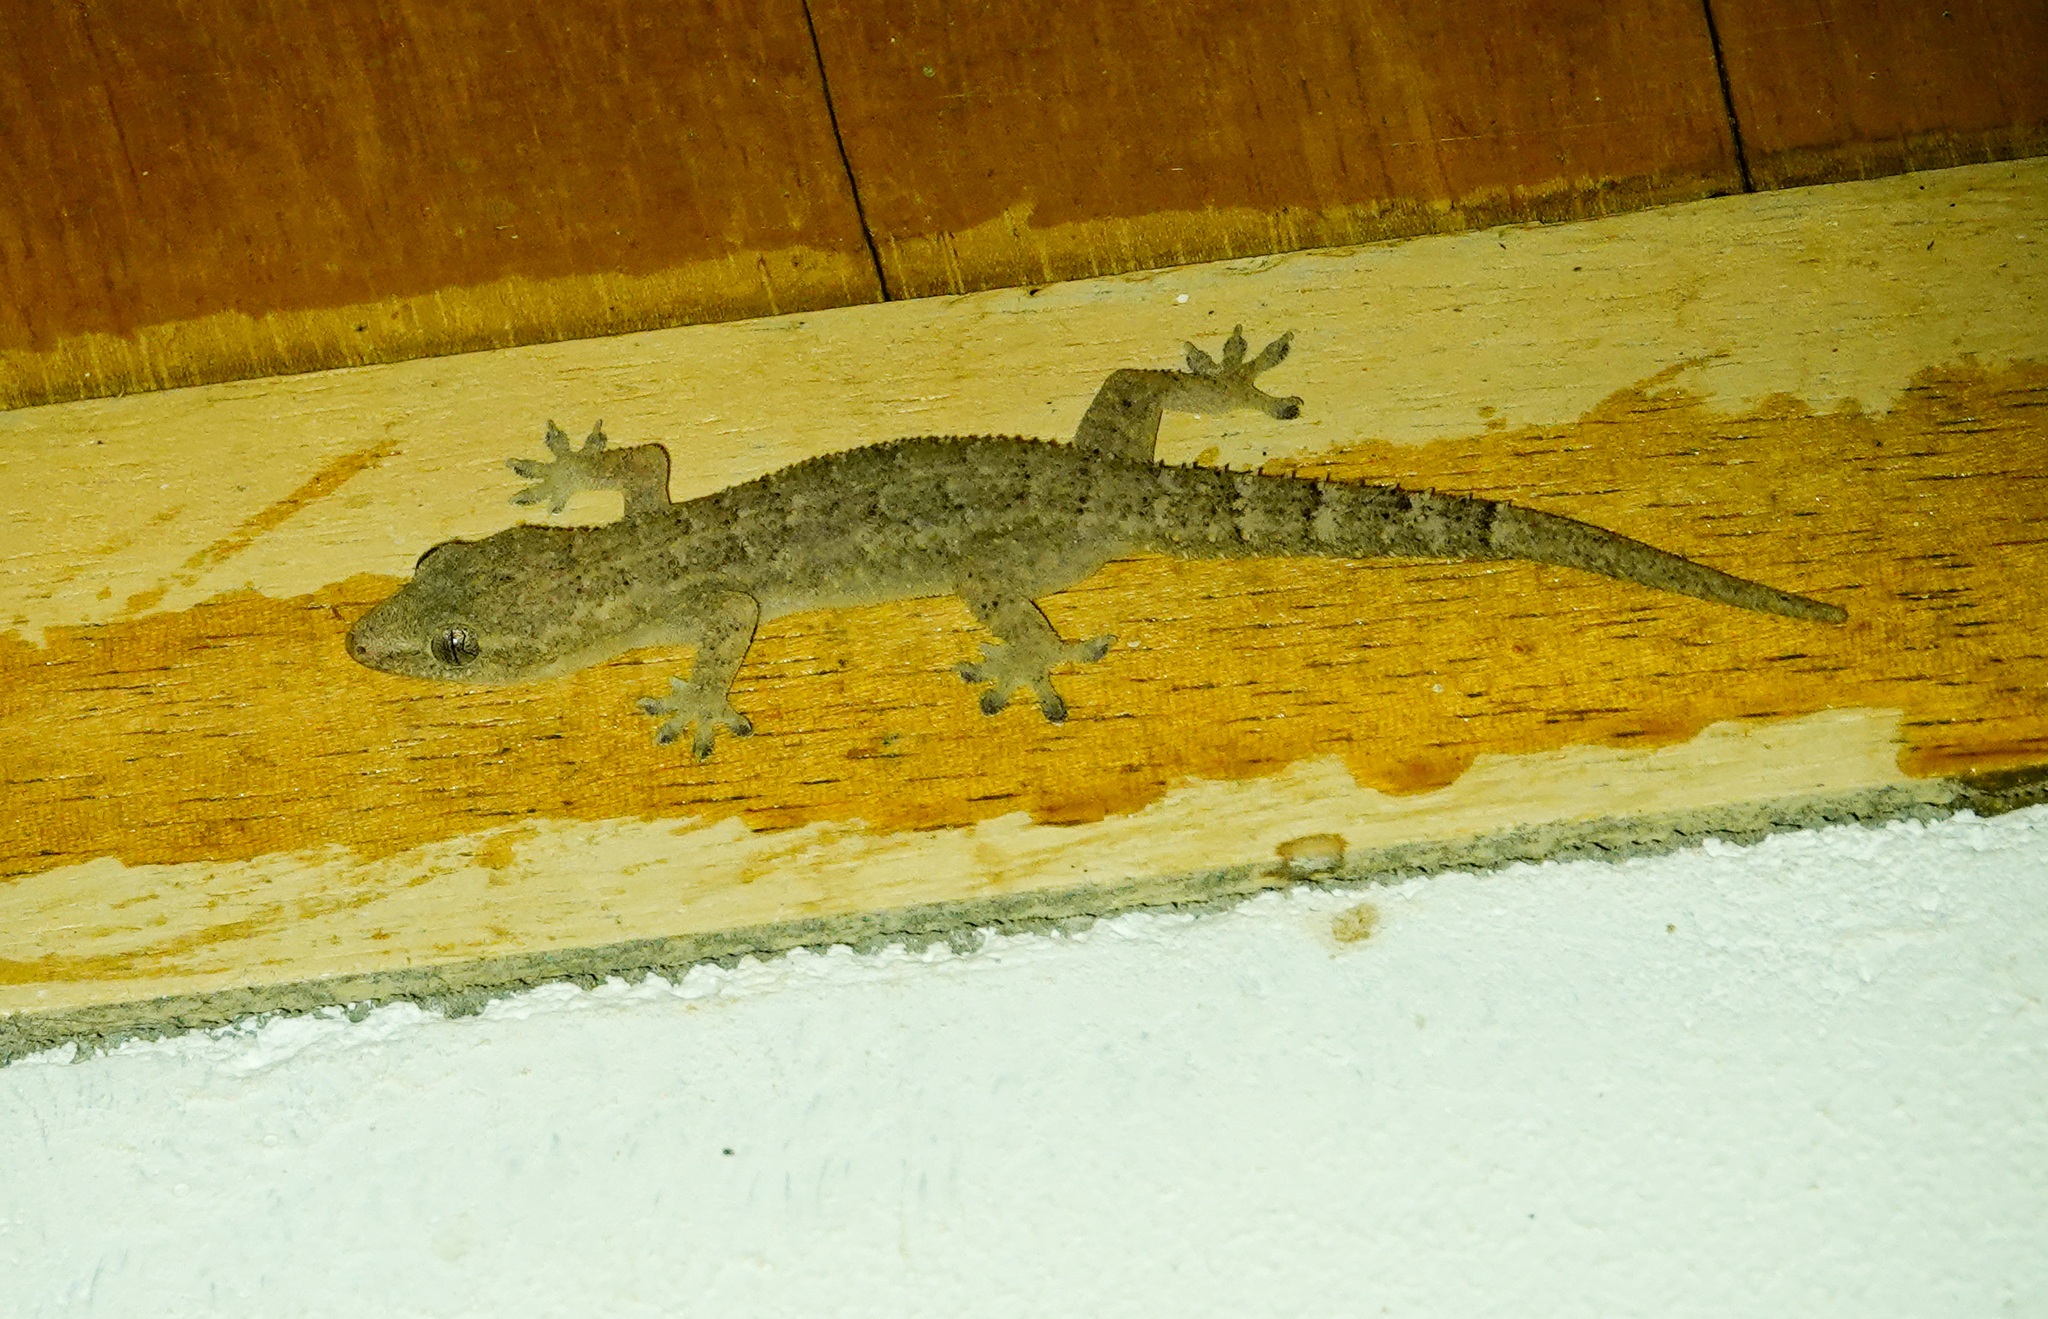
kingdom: Animalia
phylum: Chordata
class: Squamata
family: Gekkonidae
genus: Hemidactylus
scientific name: Hemidactylus palaichthus
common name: Antilles leaf-toed gecko
